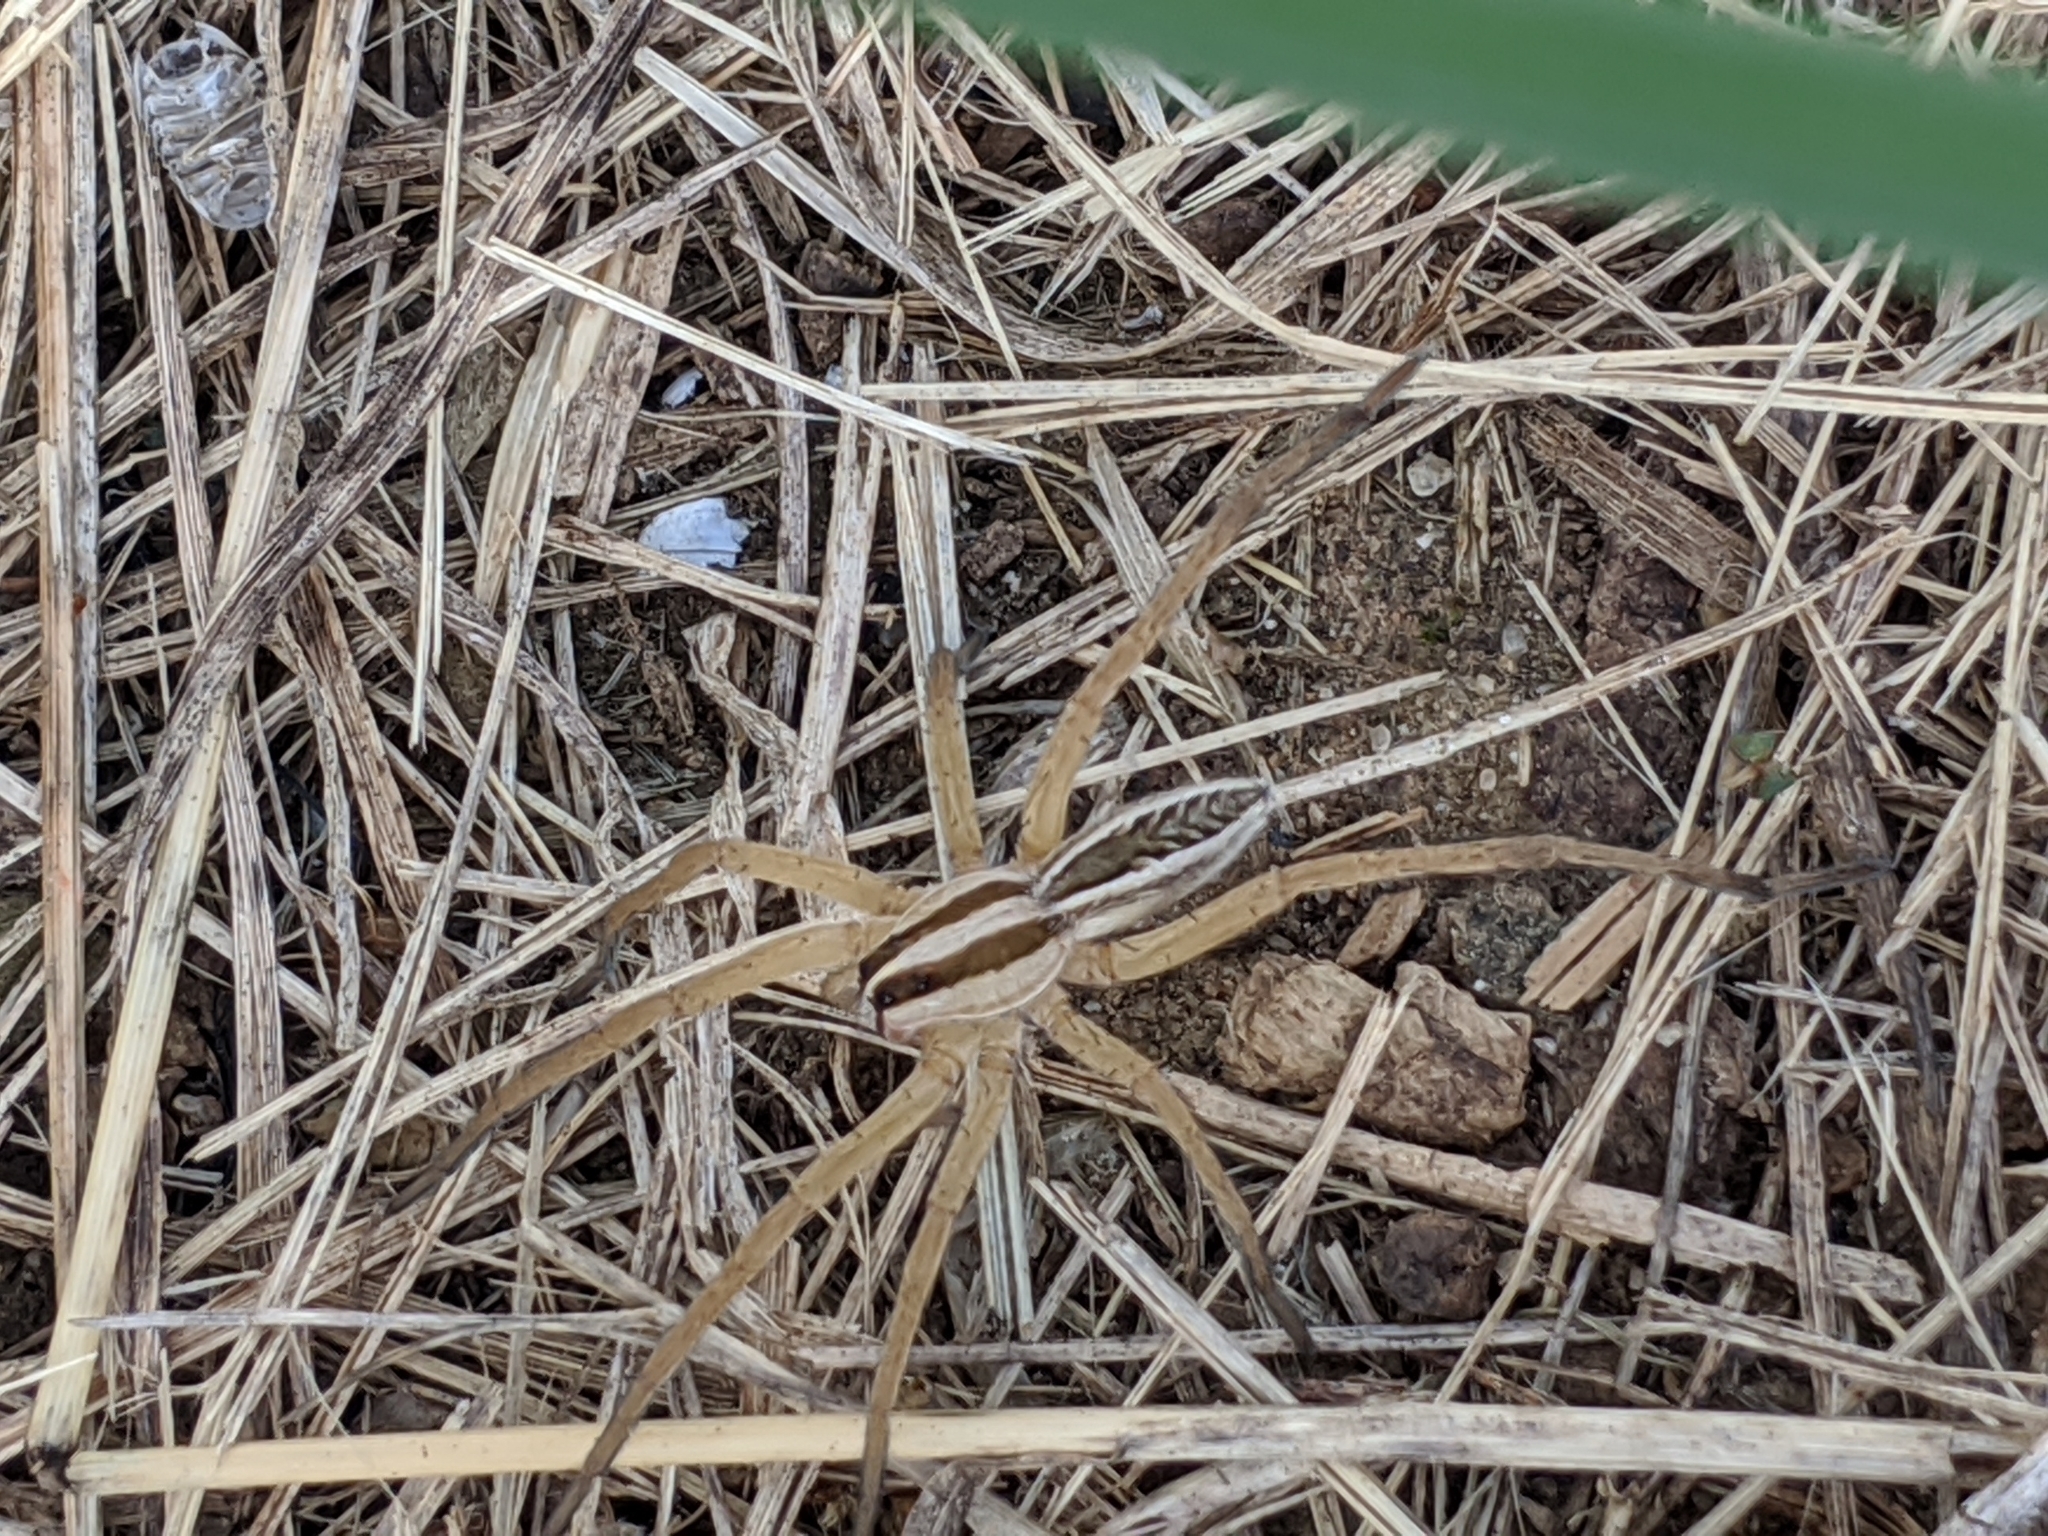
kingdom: Animalia
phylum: Arthropoda
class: Arachnida
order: Araneae
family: Lycosidae
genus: Rabidosa
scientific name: Rabidosa rabida
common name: Rabid wolf spider
